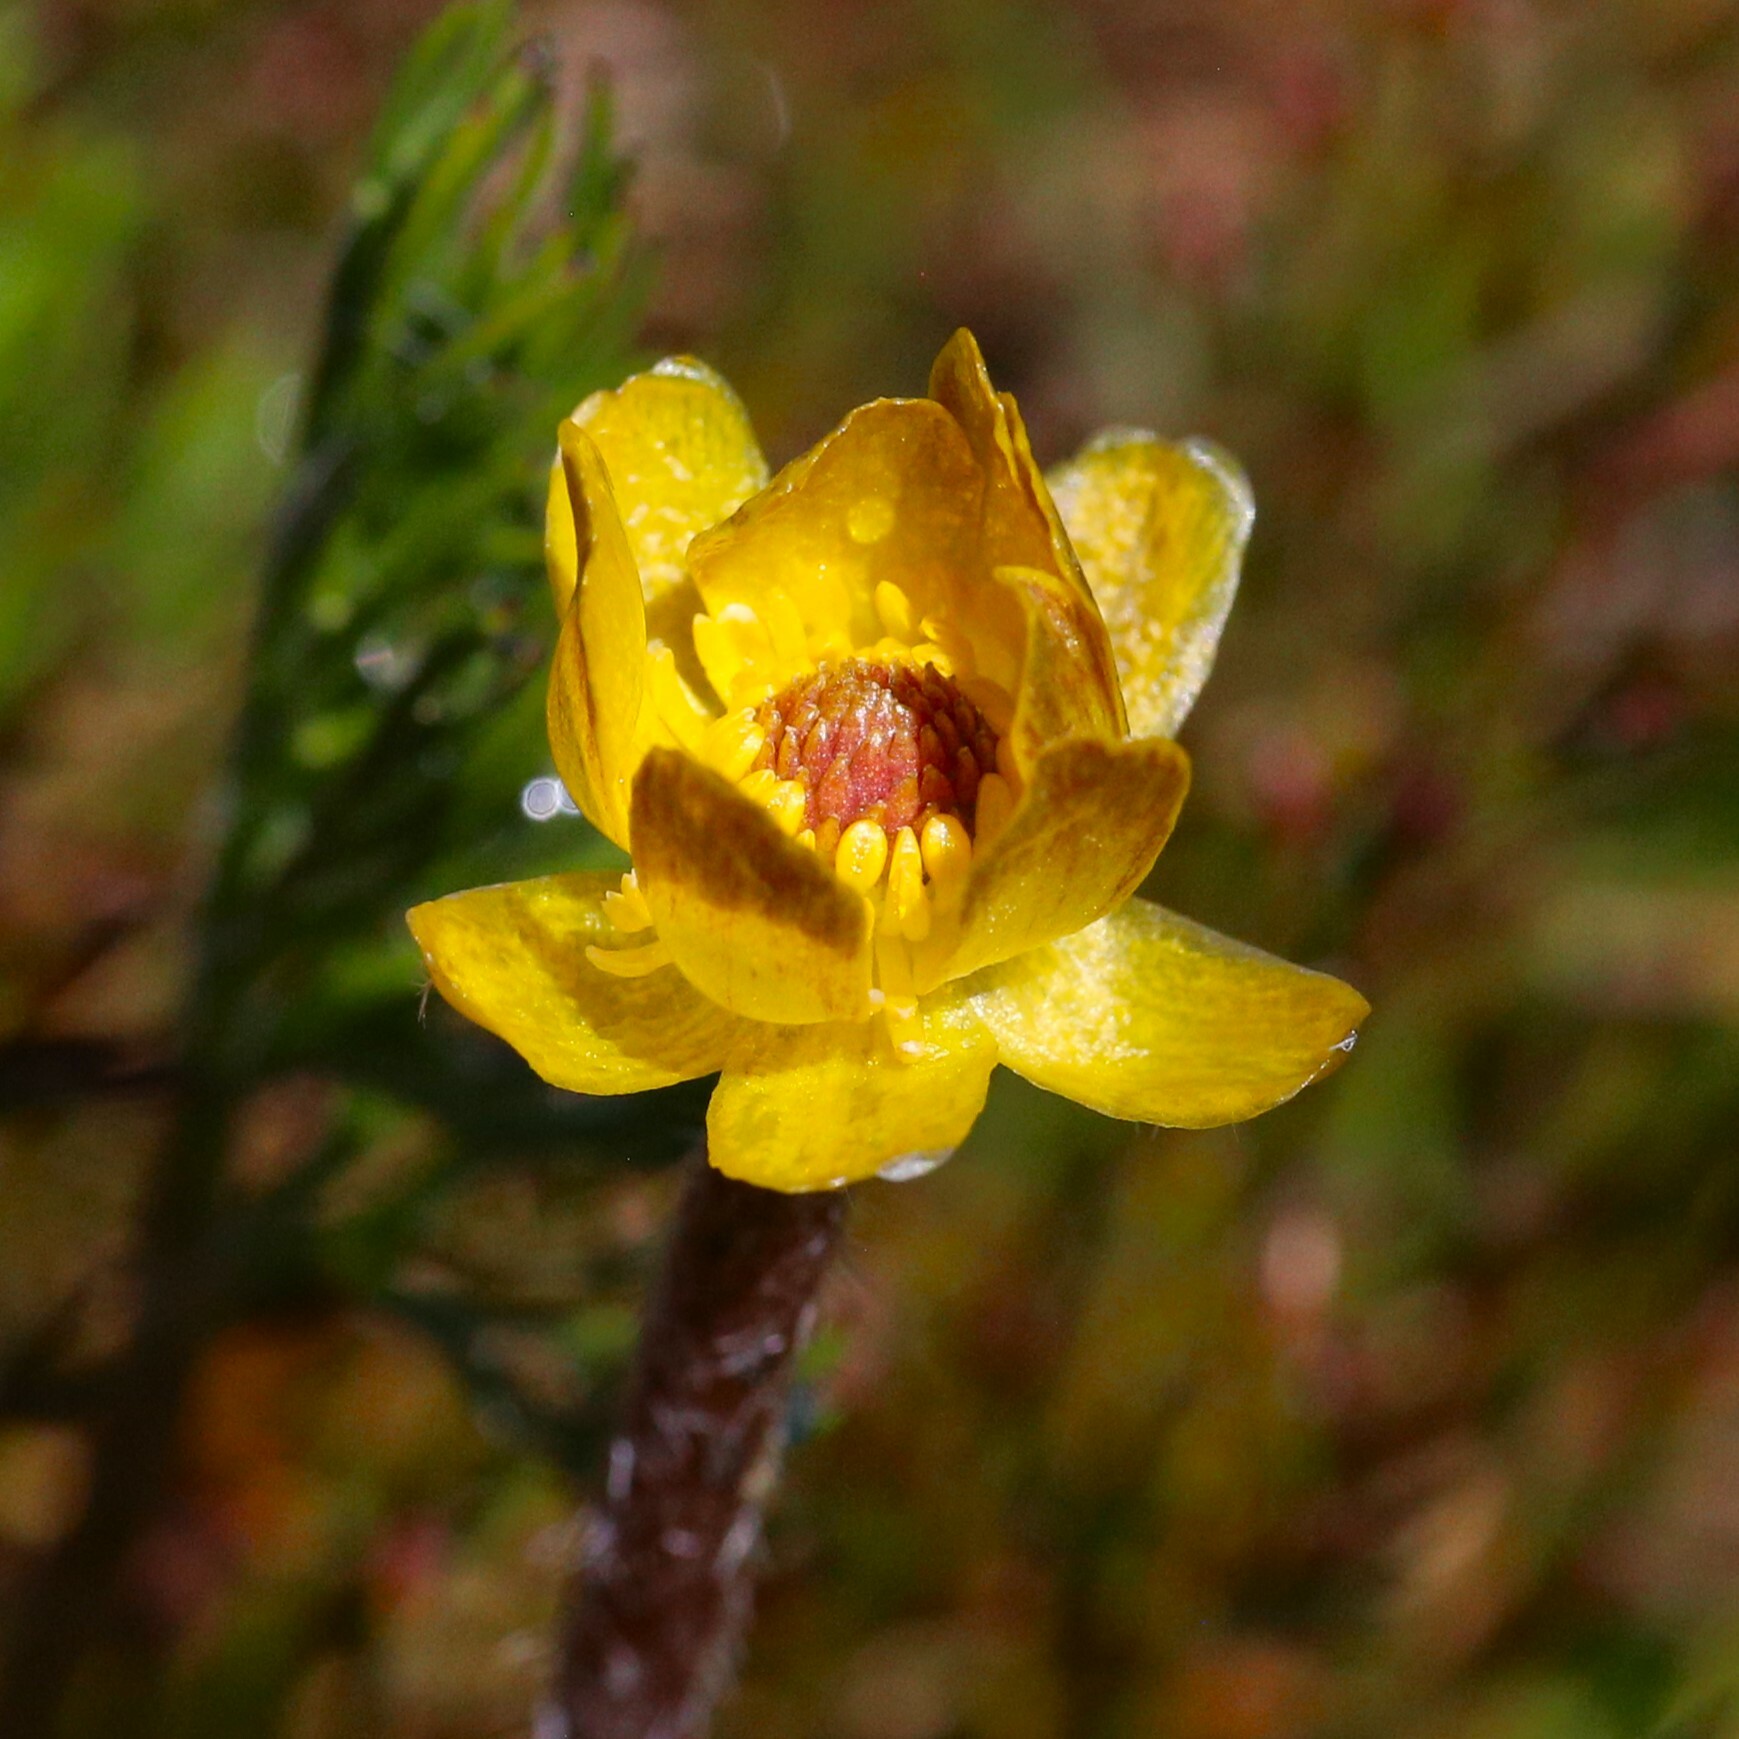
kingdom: Plantae
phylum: Tracheophyta
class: Magnoliopsida
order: Ranunculales
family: Ranunculaceae
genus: Ranunculus
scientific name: Ranunculus gunnianus
